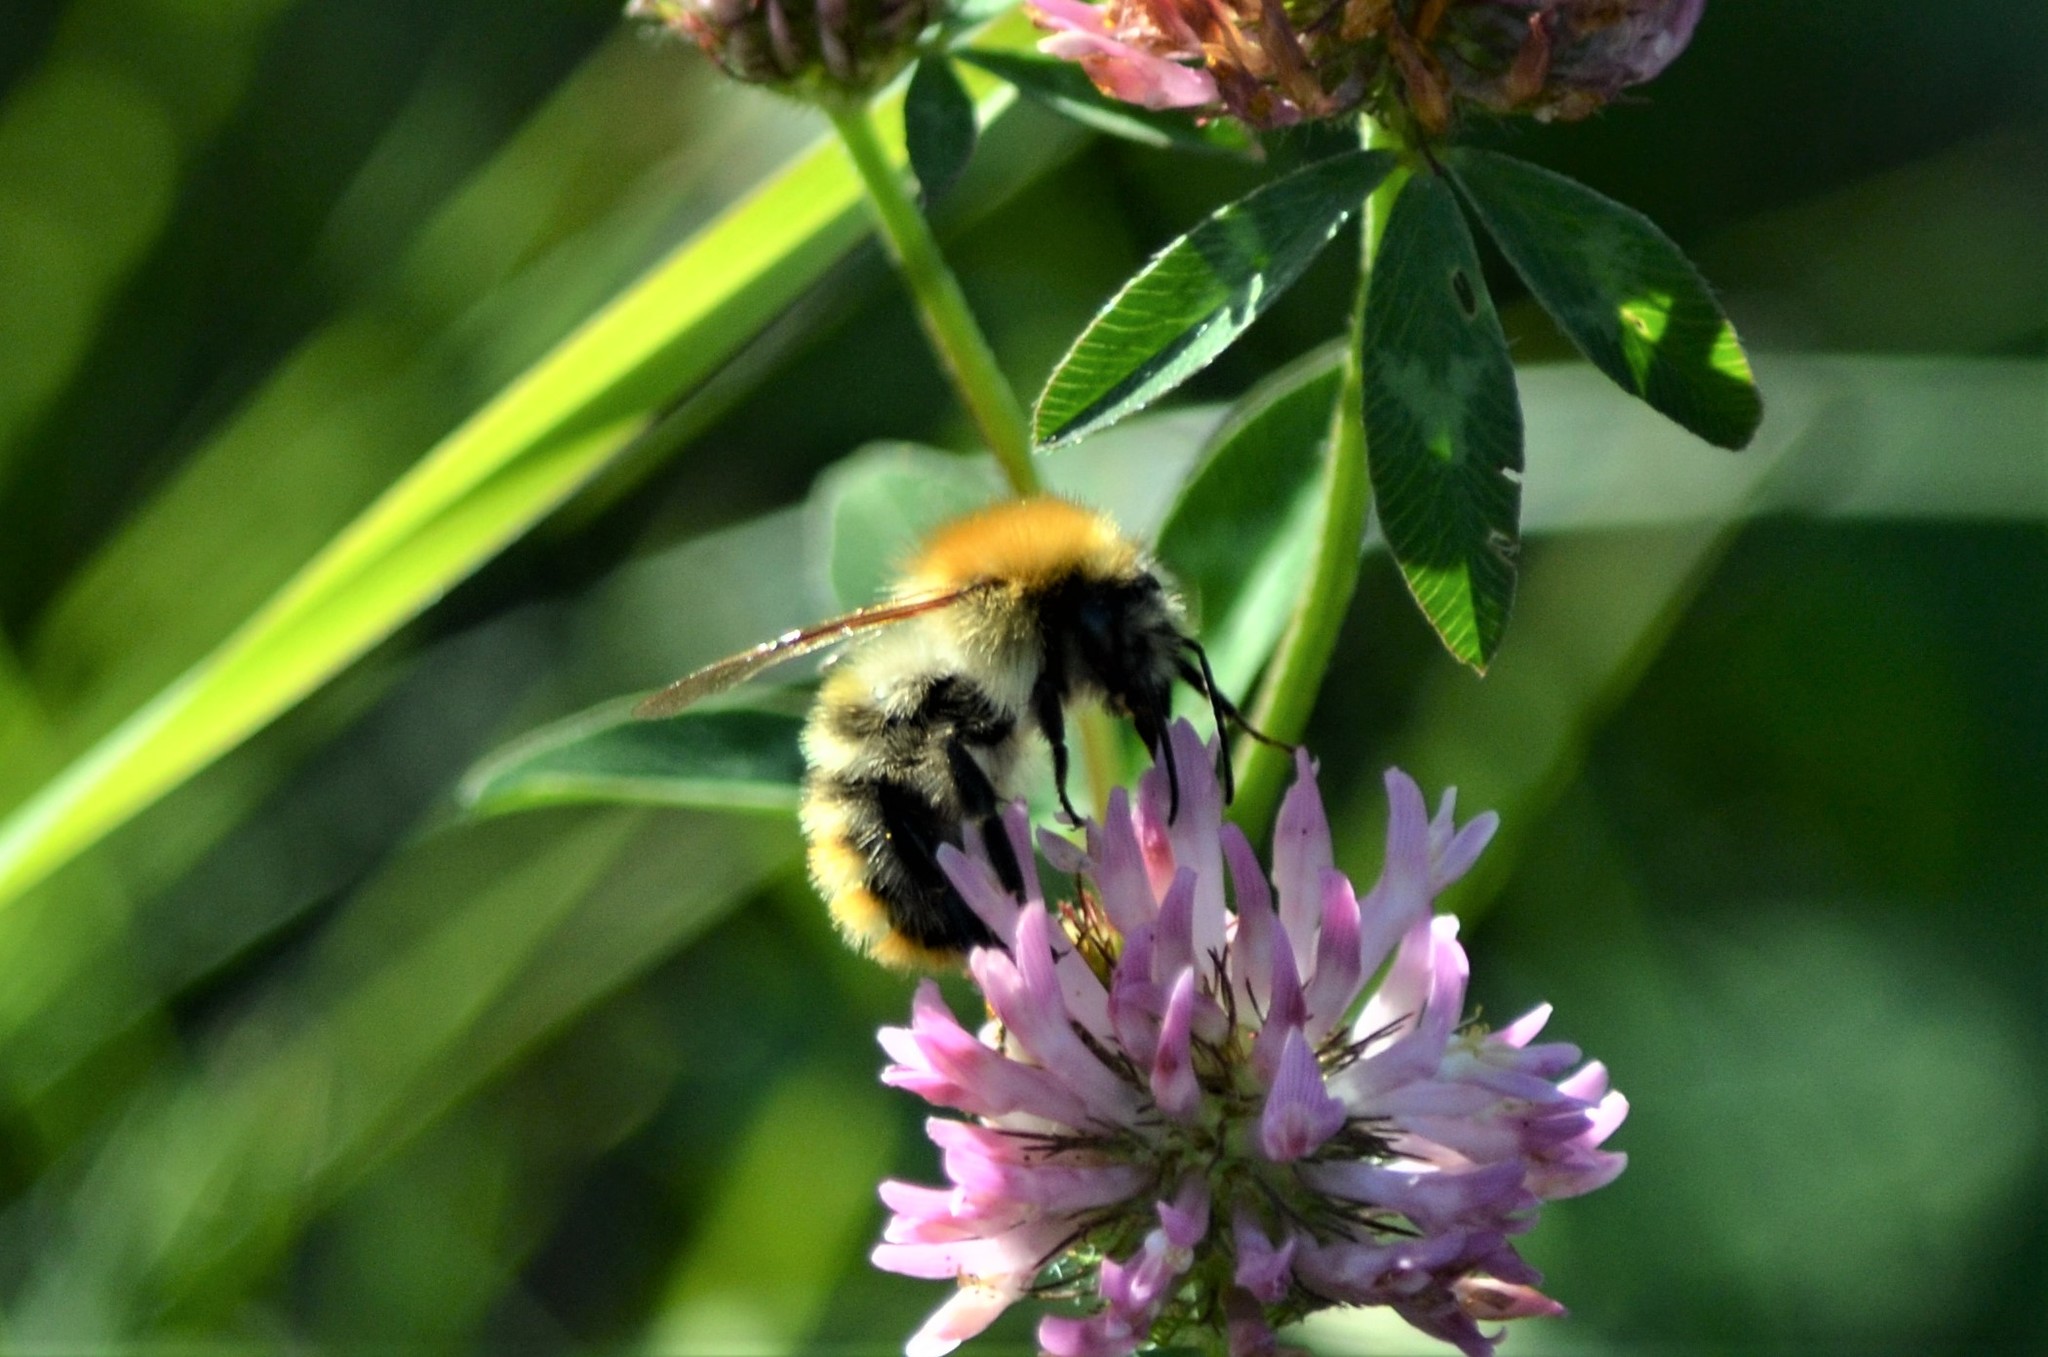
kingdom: Animalia
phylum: Arthropoda
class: Insecta
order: Hymenoptera
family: Apidae
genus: Bombus
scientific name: Bombus pascuorum
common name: Common carder bee
